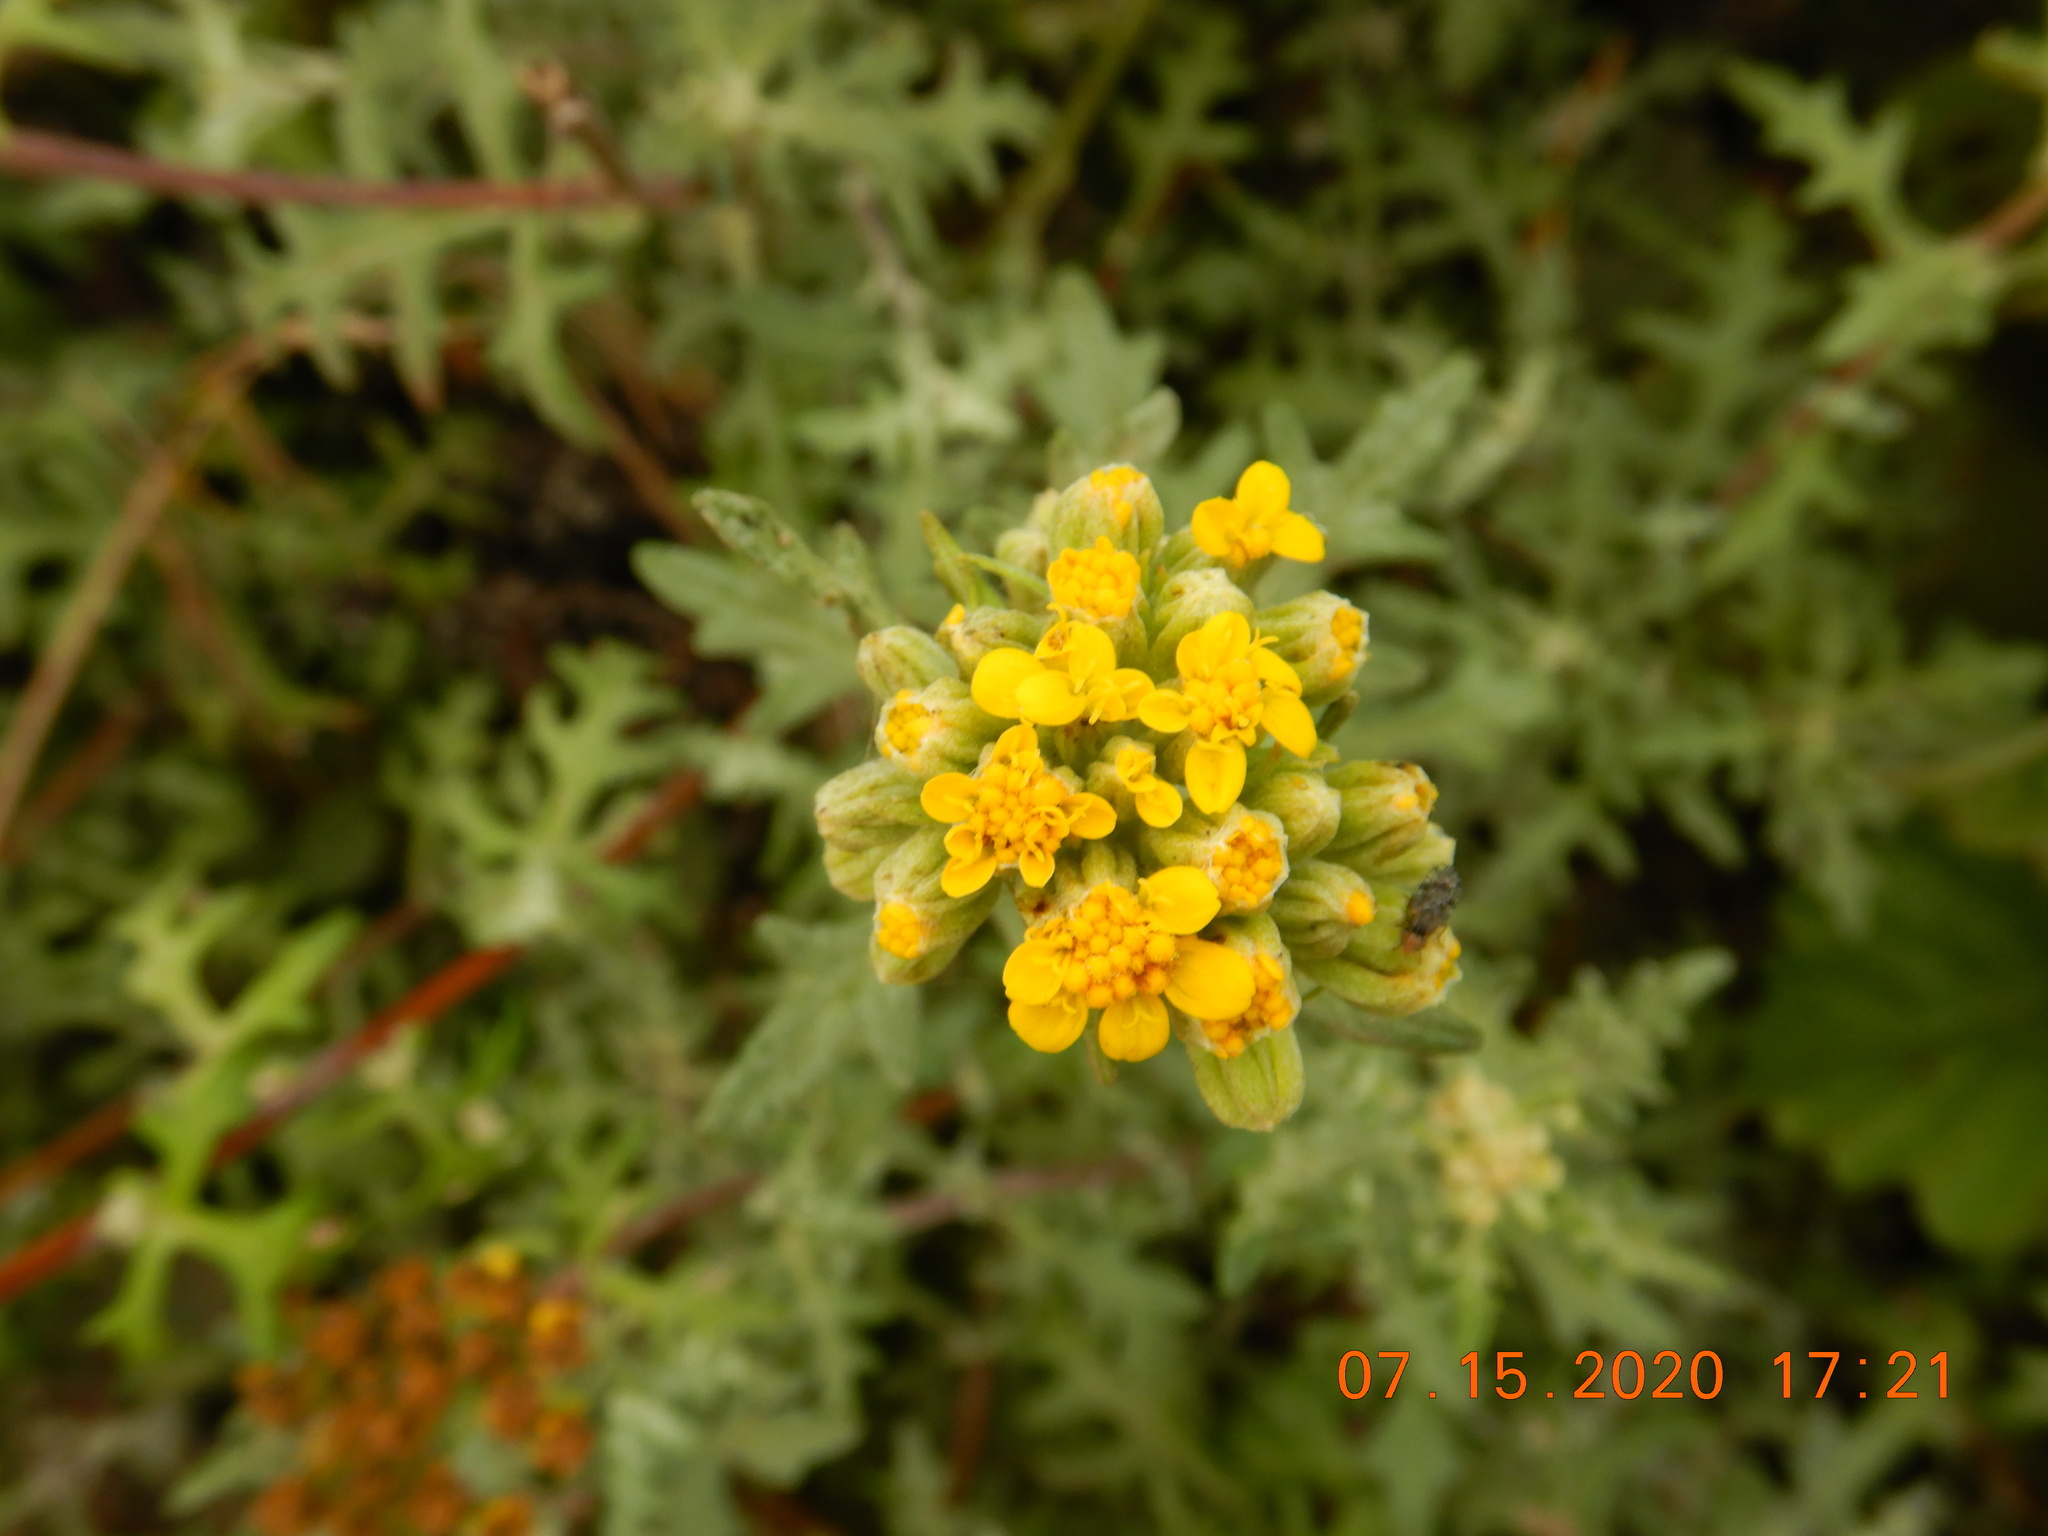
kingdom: Plantae
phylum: Tracheophyta
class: Magnoliopsida
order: Asterales
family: Asteraceae
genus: Eriophyllum
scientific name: Eriophyllum staechadifolium
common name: Lizardtail
